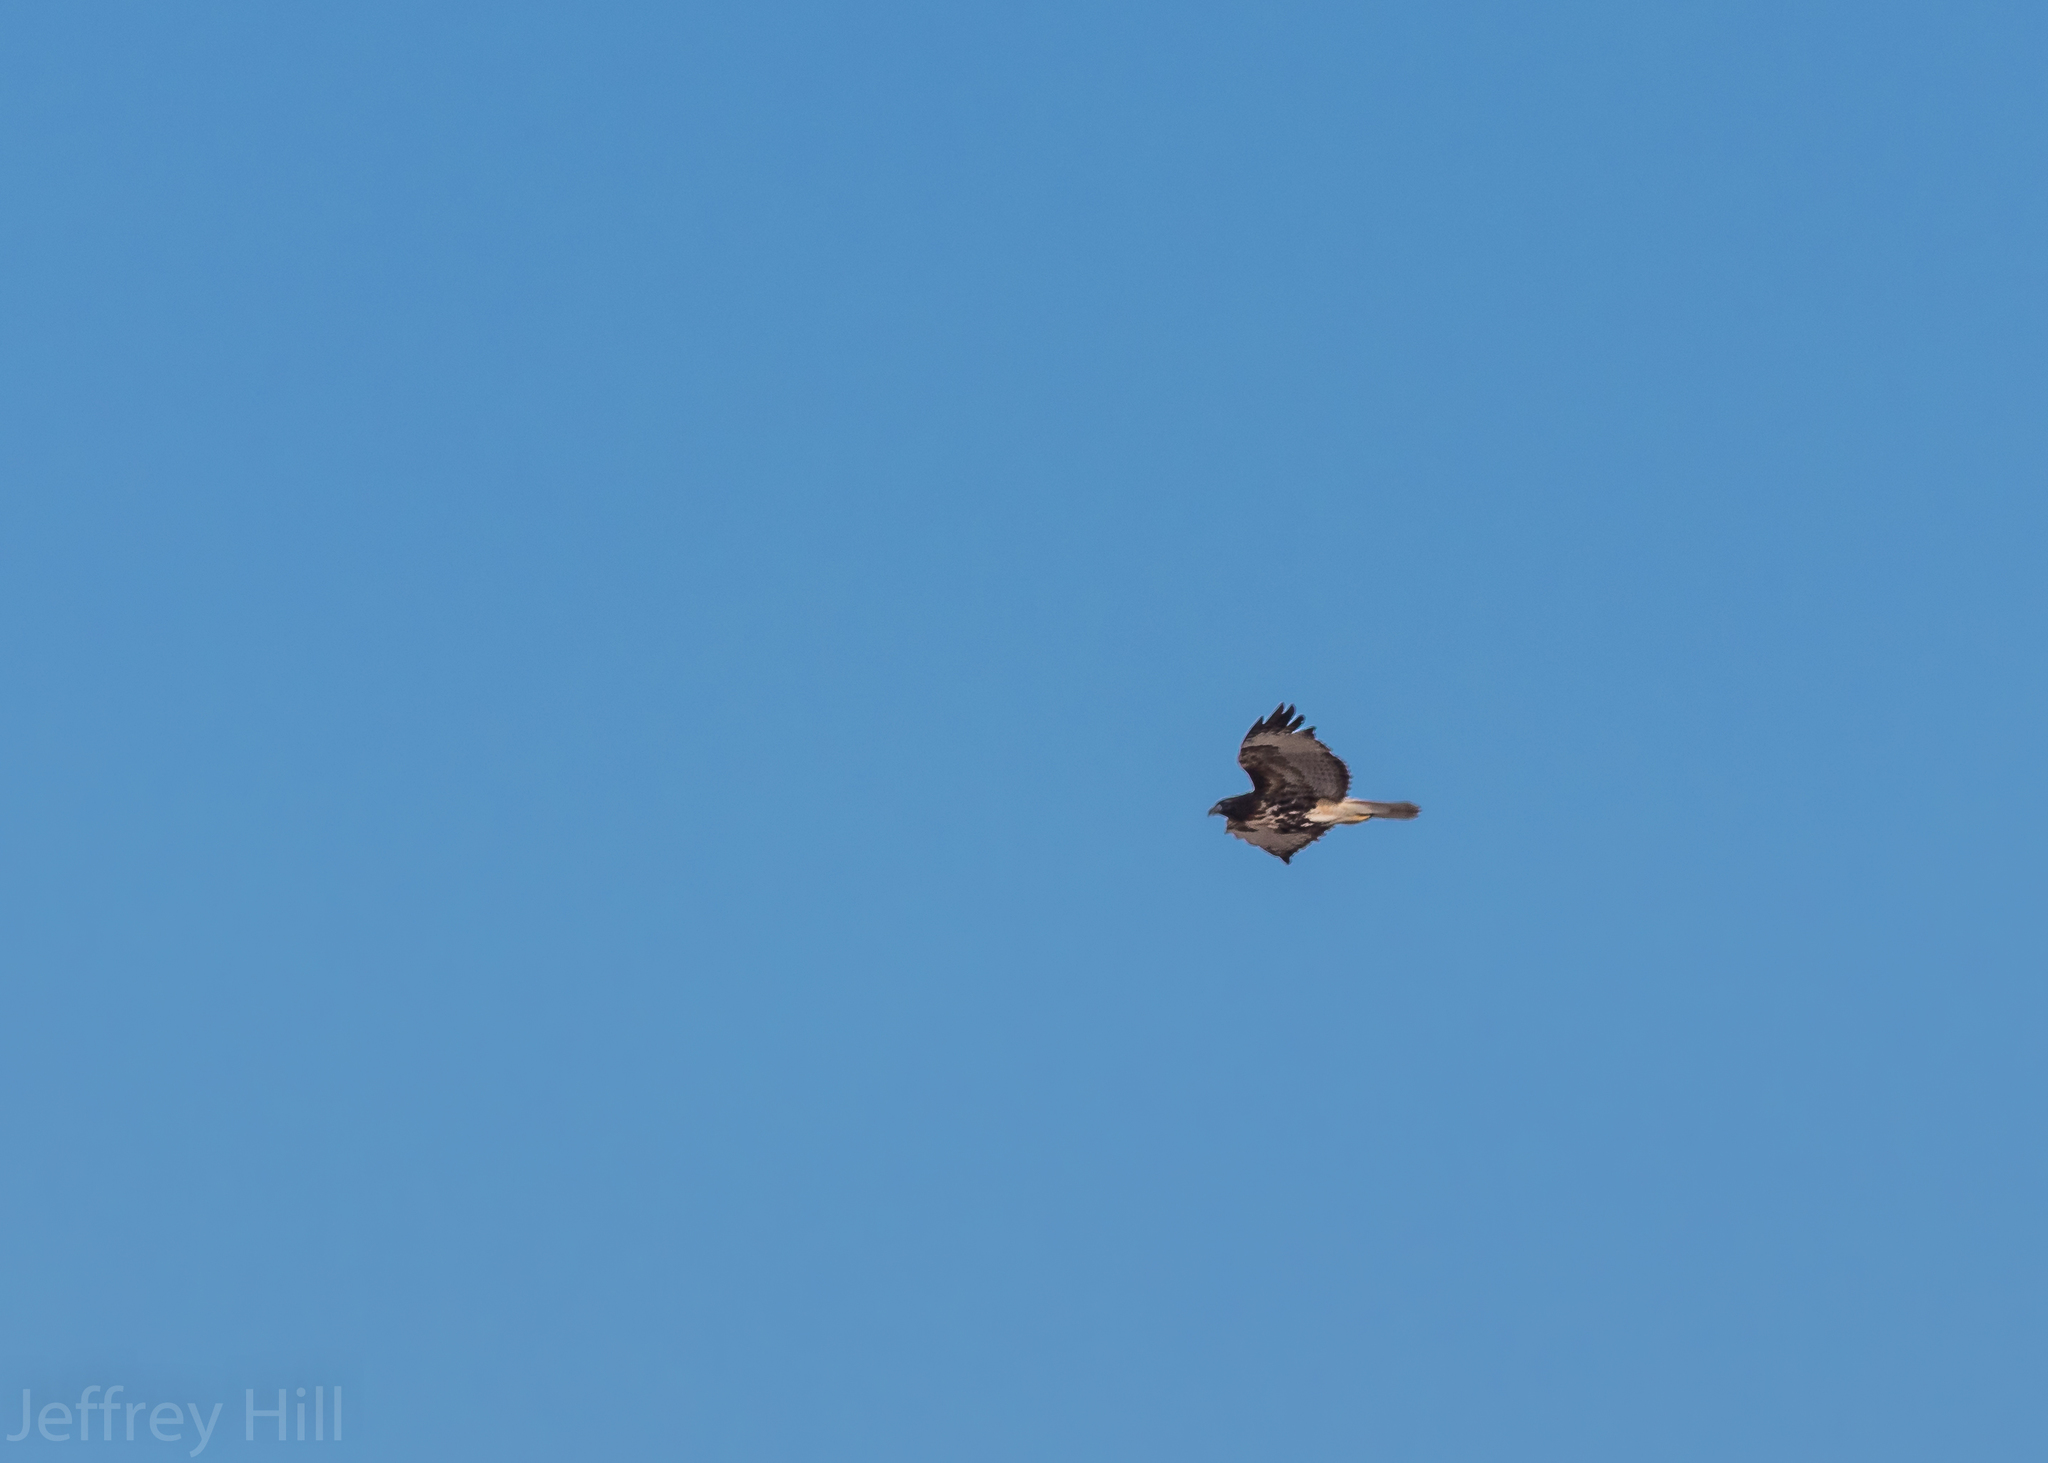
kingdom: Animalia
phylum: Chordata
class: Aves
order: Accipitriformes
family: Accipitridae
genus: Buteo
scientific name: Buteo jamaicensis
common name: Red-tailed hawk
